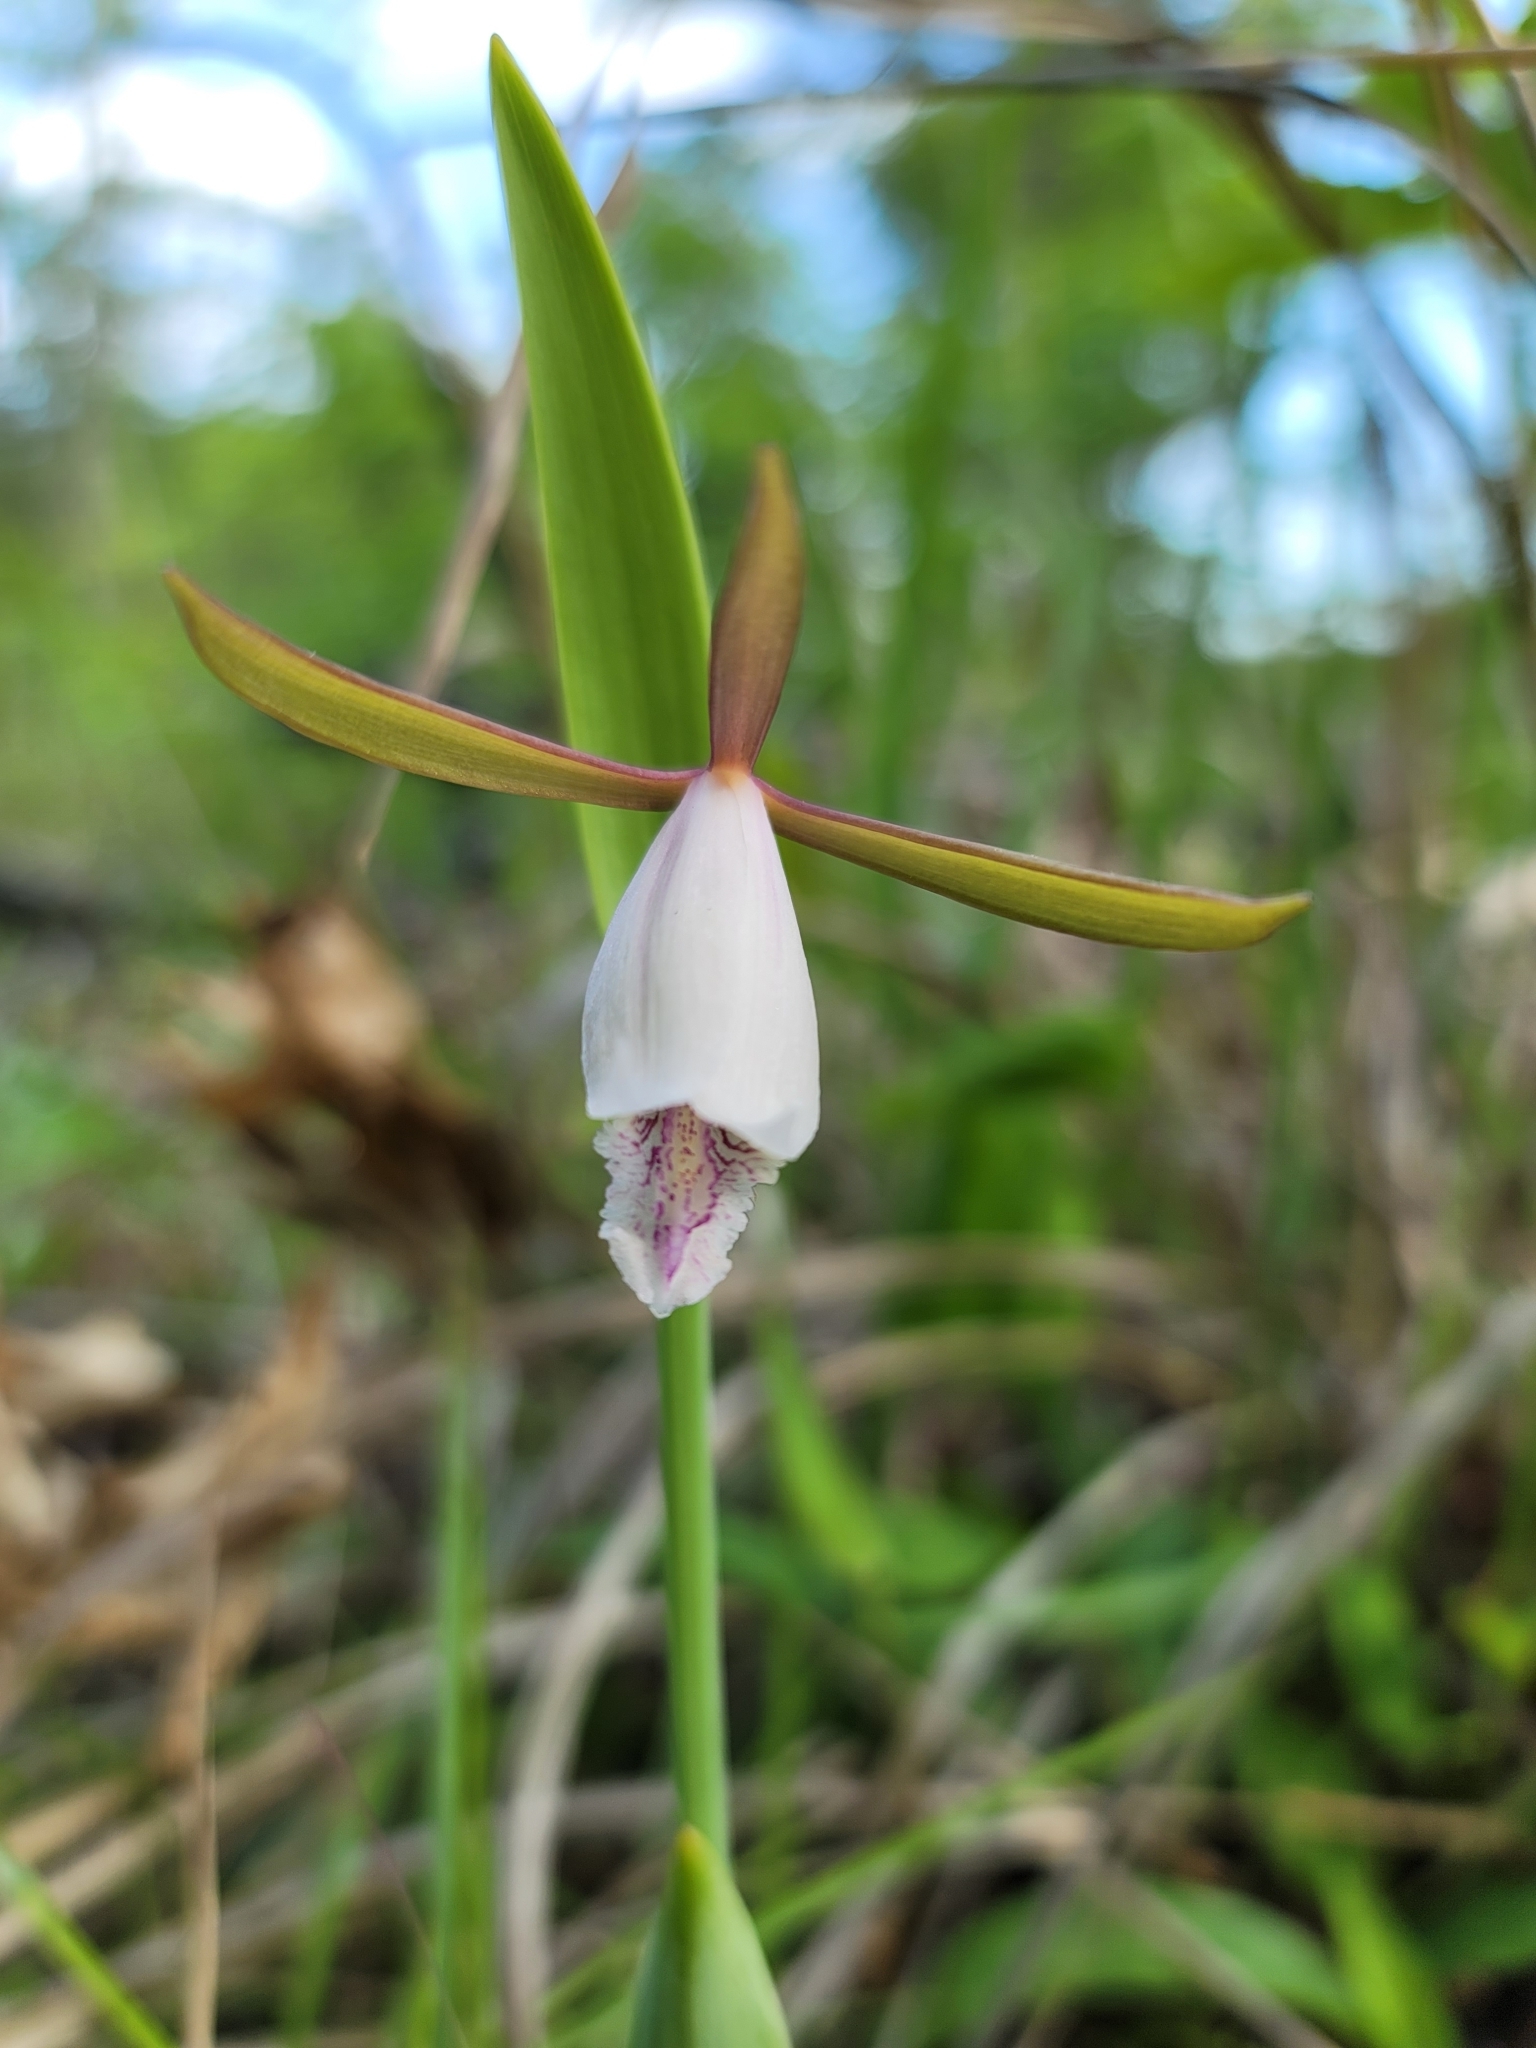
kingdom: Plantae
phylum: Tracheophyta
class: Liliopsida
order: Asparagales
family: Orchidaceae
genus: Cleistesiopsis
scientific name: Cleistesiopsis bifaria
